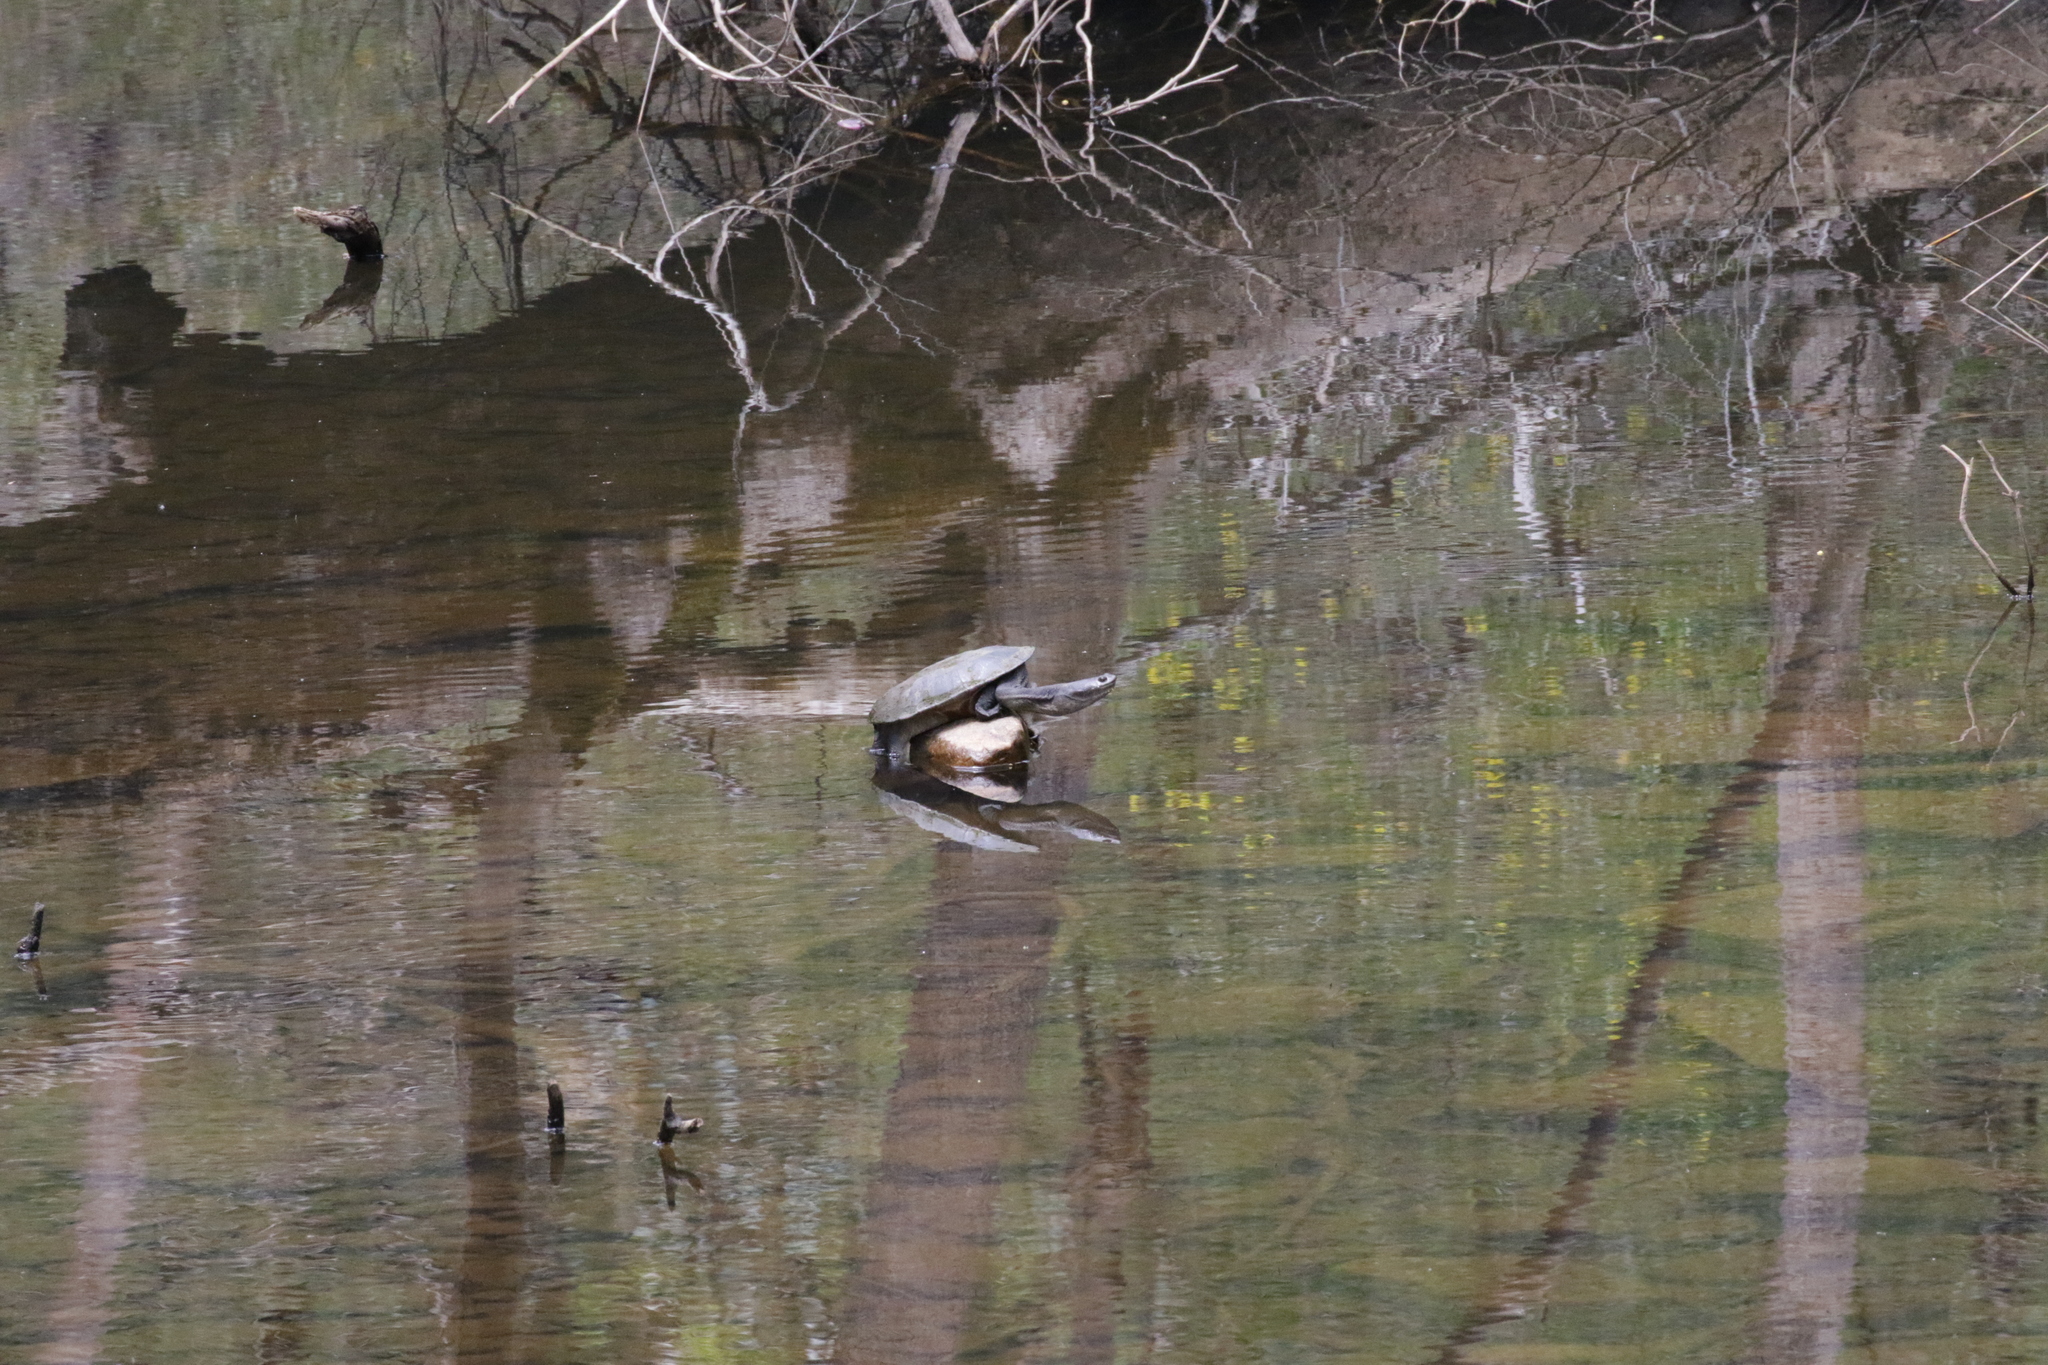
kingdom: Animalia
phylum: Chordata
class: Testudines
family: Chelidae
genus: Chelodina
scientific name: Chelodina oblonga
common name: Northern snake-necked turtle
